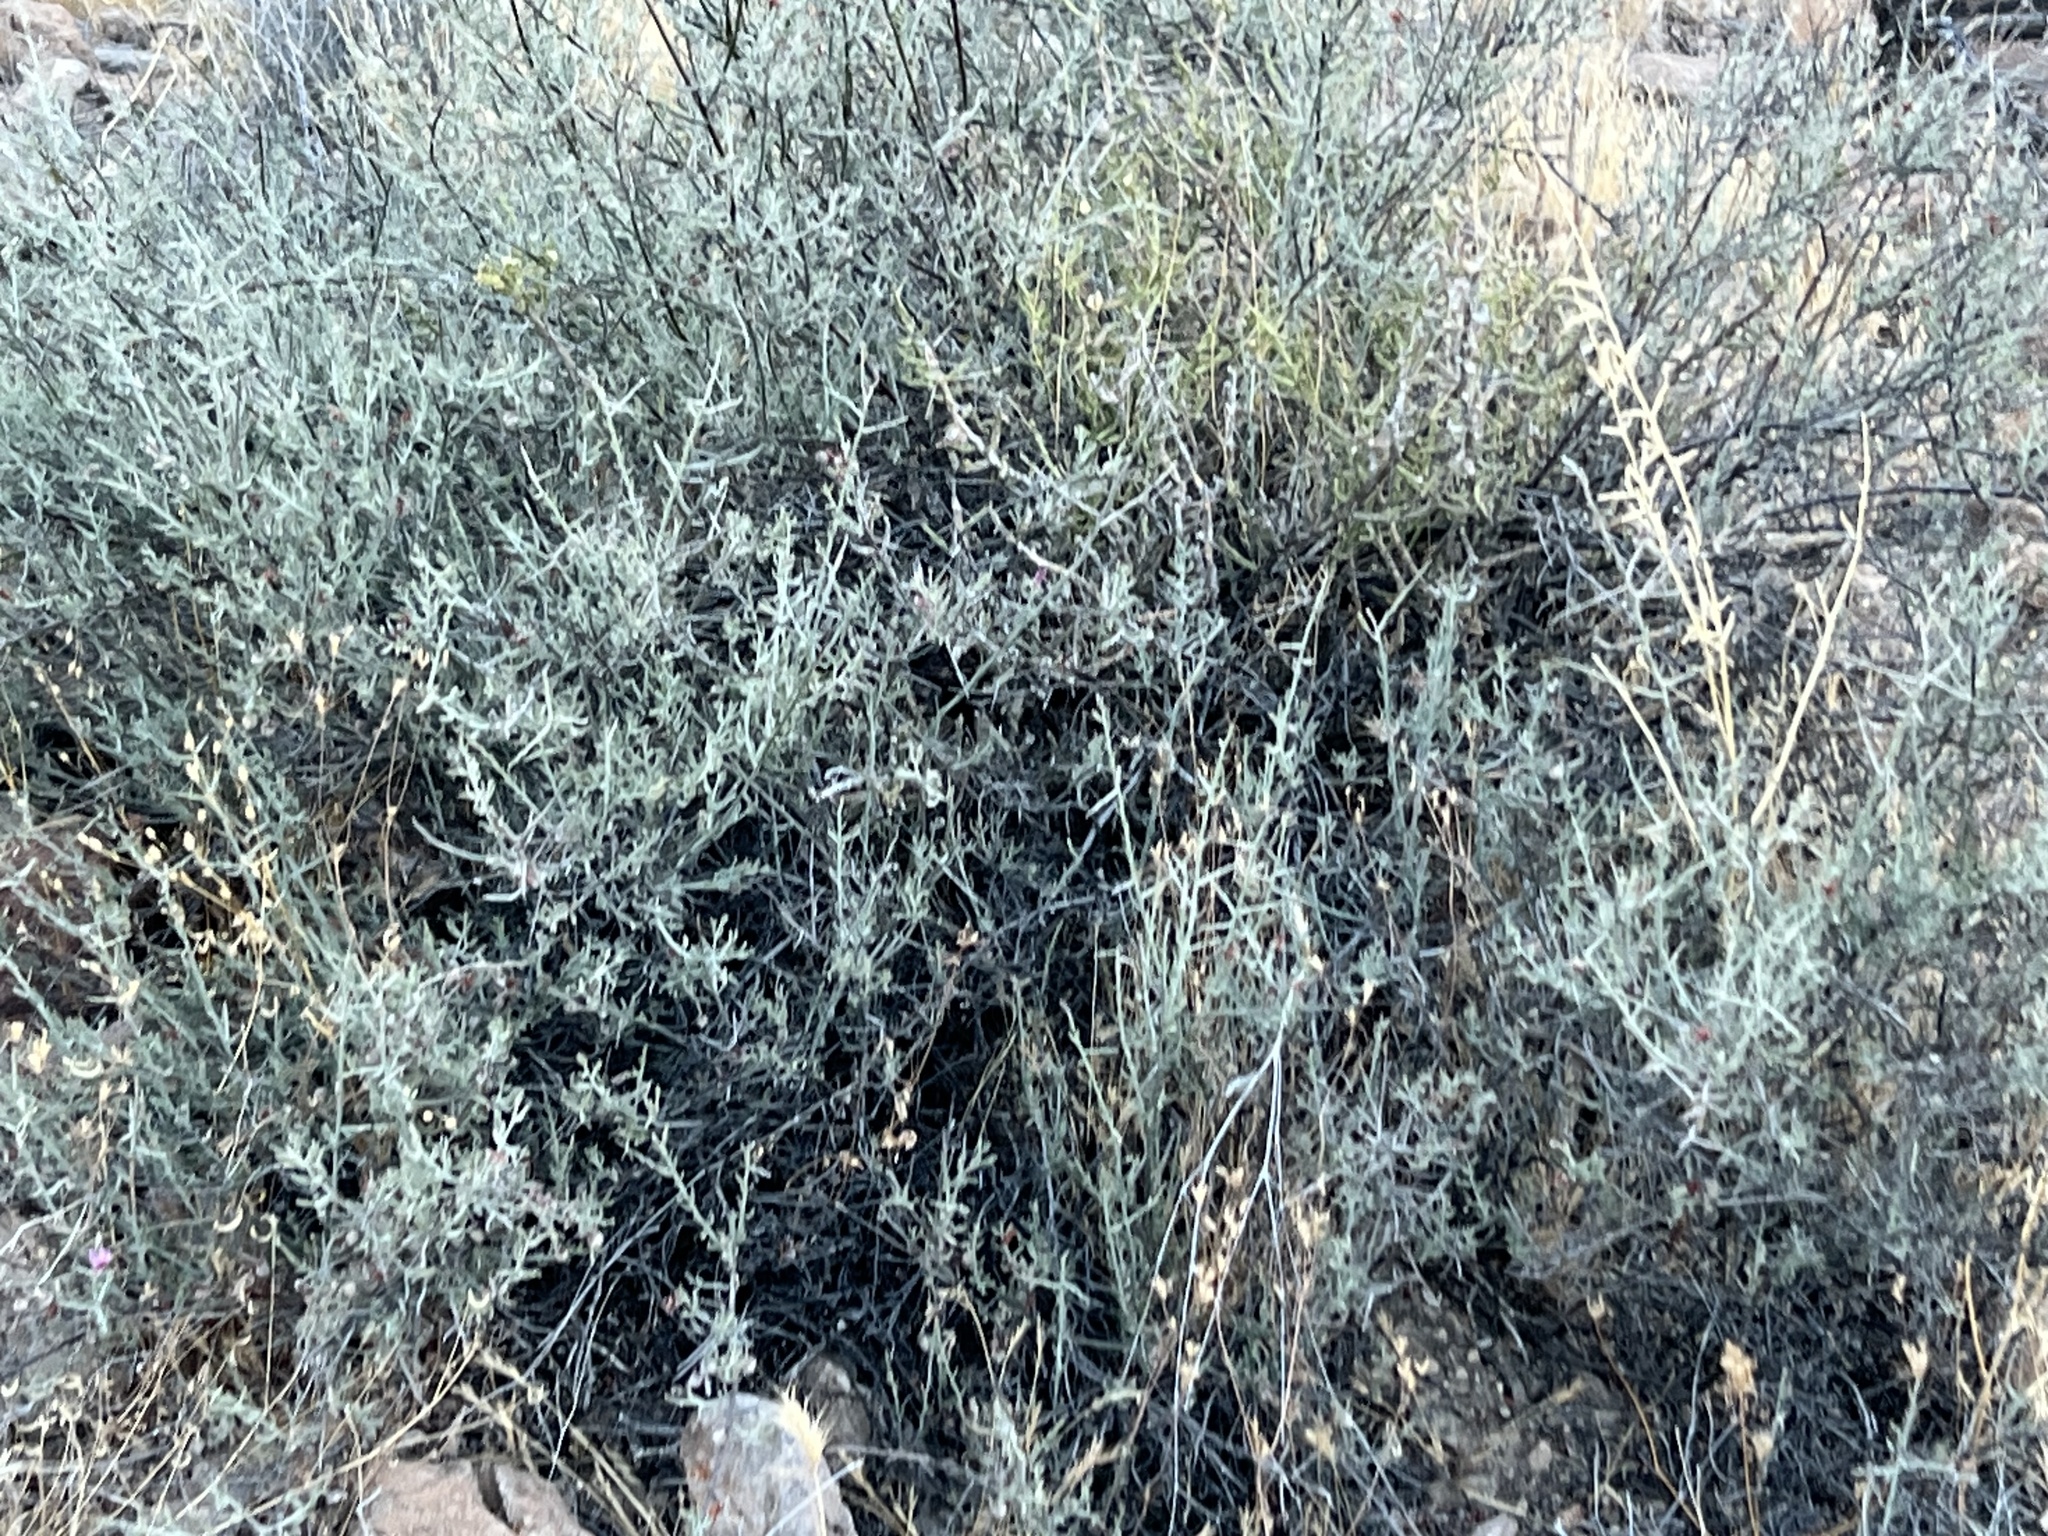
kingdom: Plantae
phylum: Tracheophyta
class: Magnoliopsida
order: Zygophyllales
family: Krameriaceae
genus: Krameria
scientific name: Krameria bicolor
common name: White ratany
